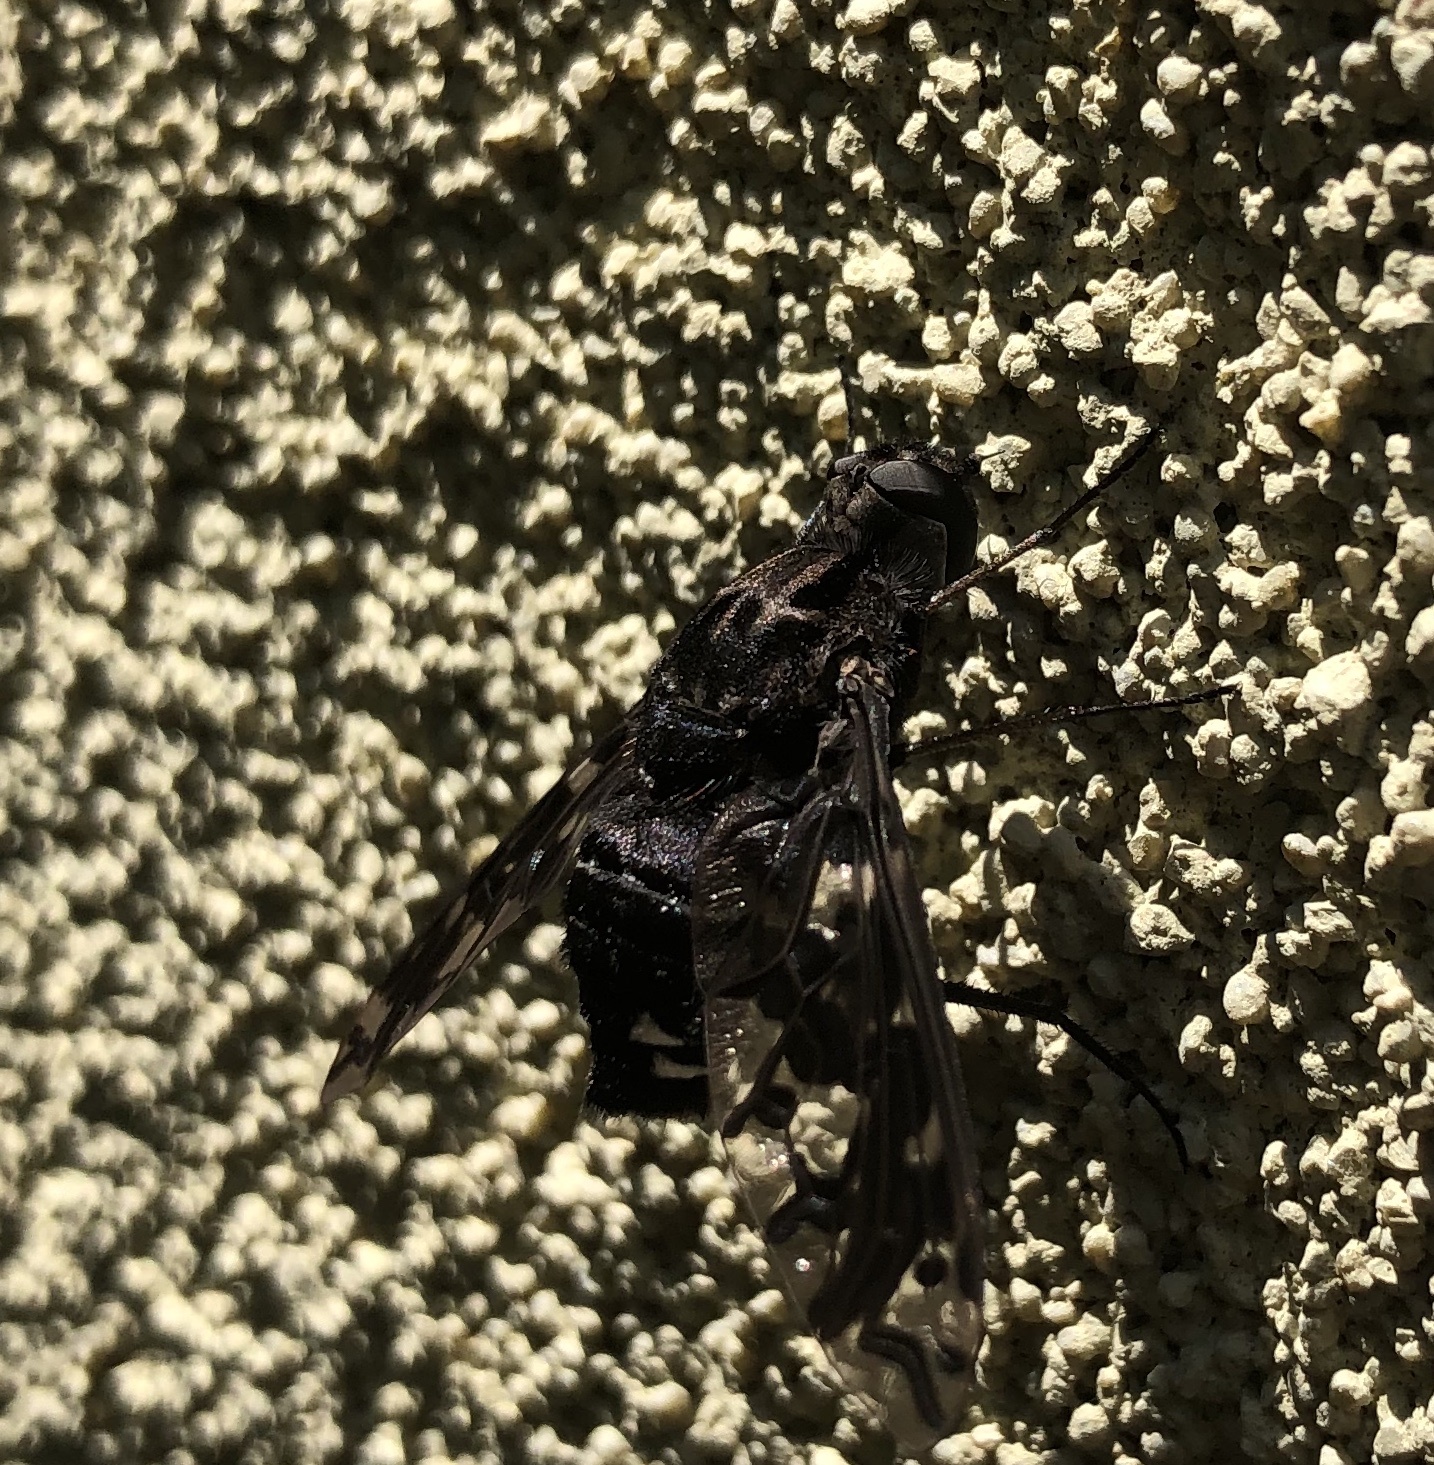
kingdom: Animalia
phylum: Arthropoda
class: Insecta
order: Diptera
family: Bombyliidae
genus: Xenox
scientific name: Xenox tigrinus
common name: Tiger bee fly
